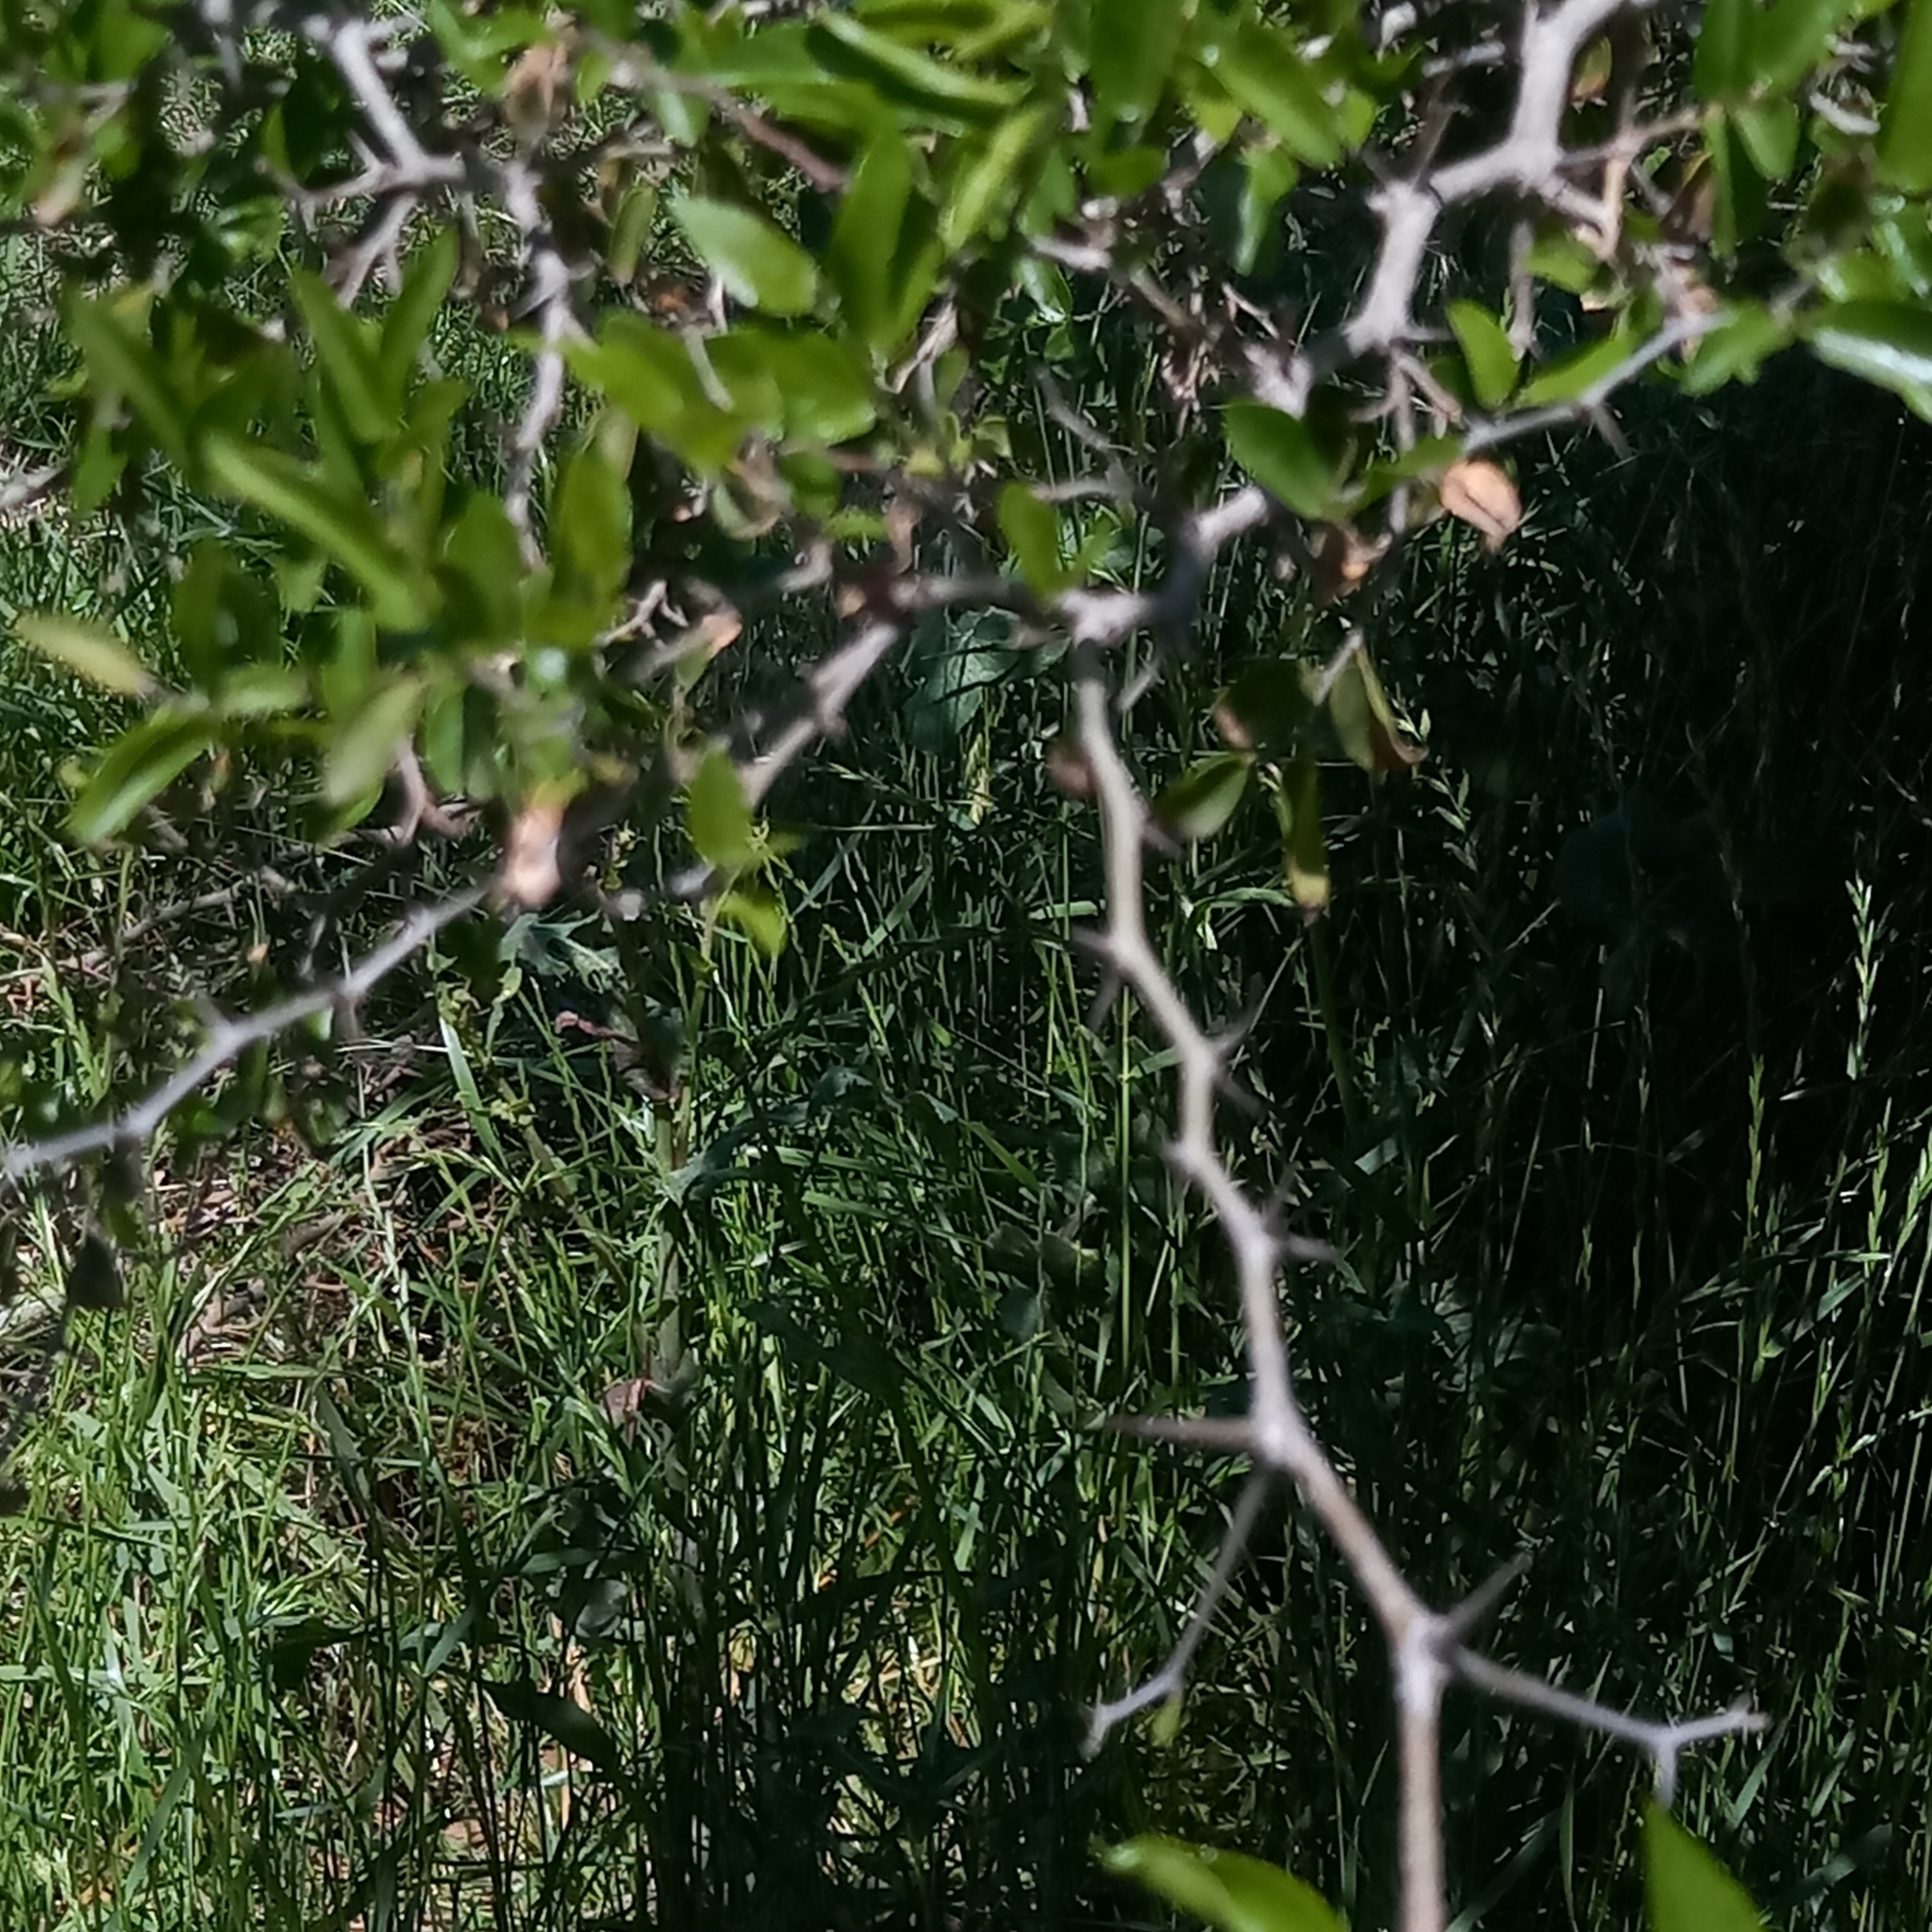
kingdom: Plantae
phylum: Tracheophyta
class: Magnoliopsida
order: Rosales
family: Cannabaceae
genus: Celtis
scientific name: Celtis tala
